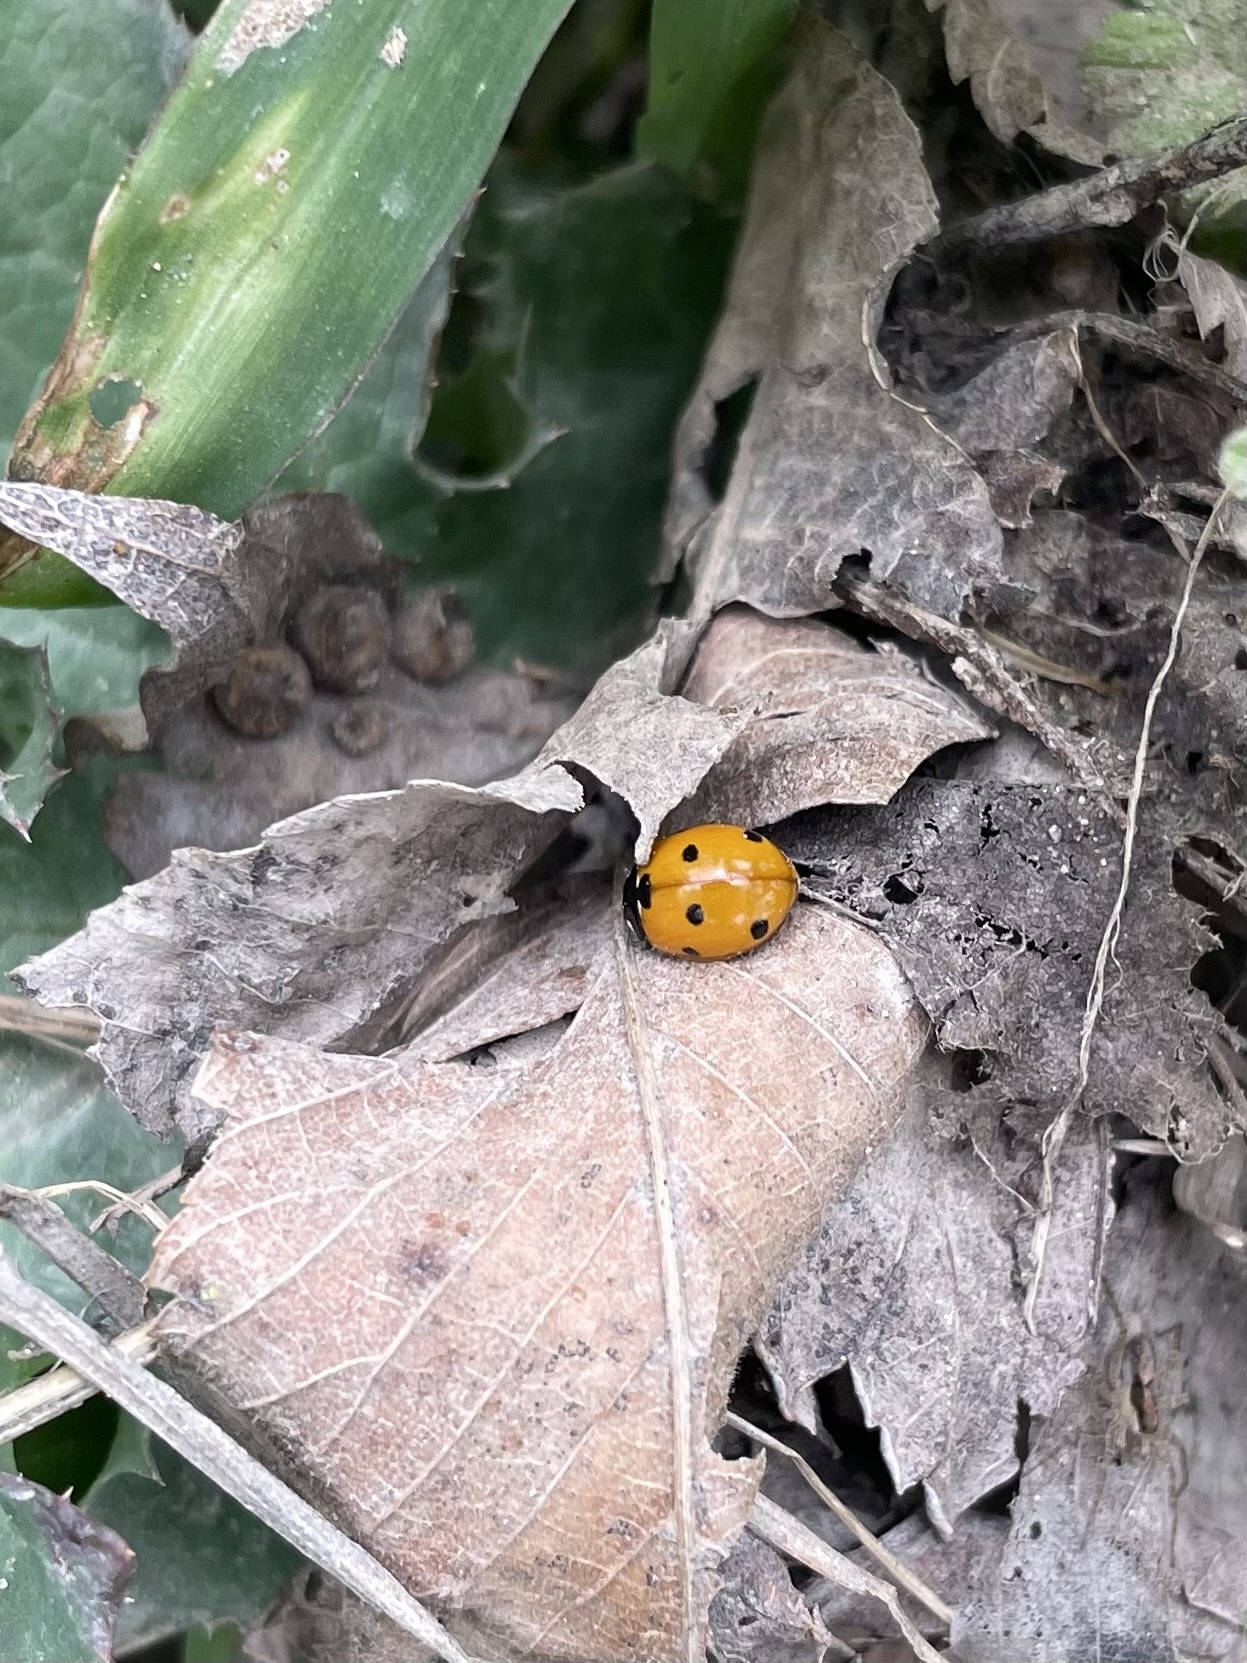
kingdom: Animalia
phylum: Arthropoda
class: Insecta
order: Coleoptera
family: Coccinellidae
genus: Coccinella
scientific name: Coccinella septempunctata
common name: Sevenspotted lady beetle
